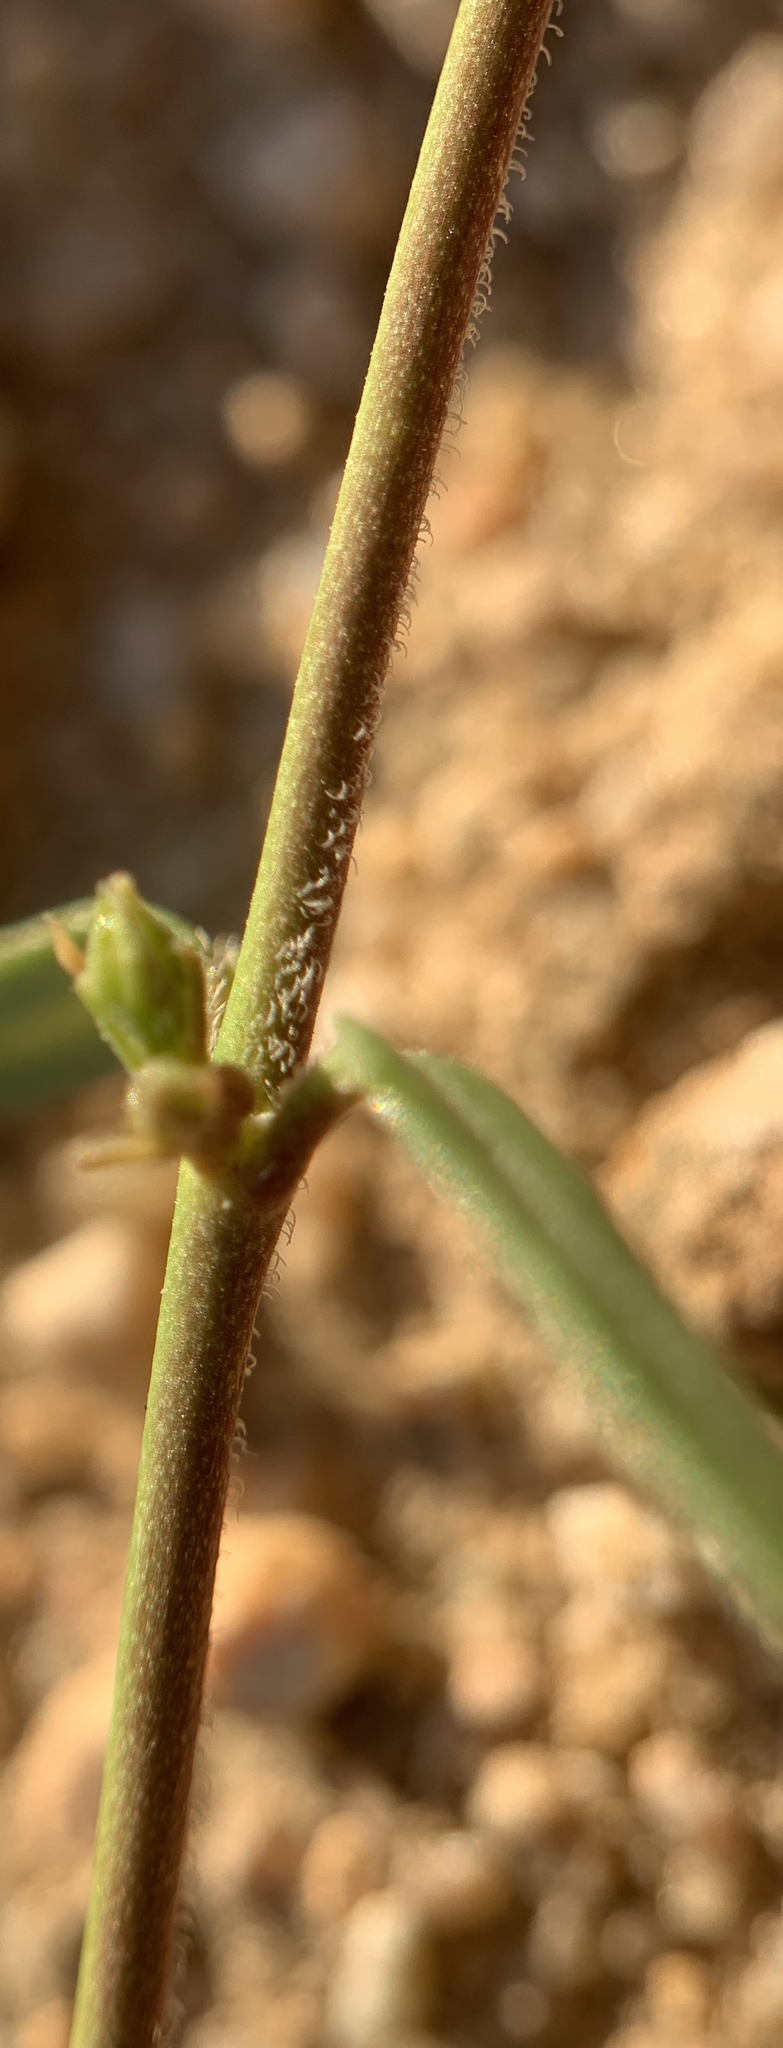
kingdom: Plantae
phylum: Tracheophyta
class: Magnoliopsida
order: Gentianales
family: Apocynaceae
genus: Metastelma
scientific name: Metastelma arizonicum
